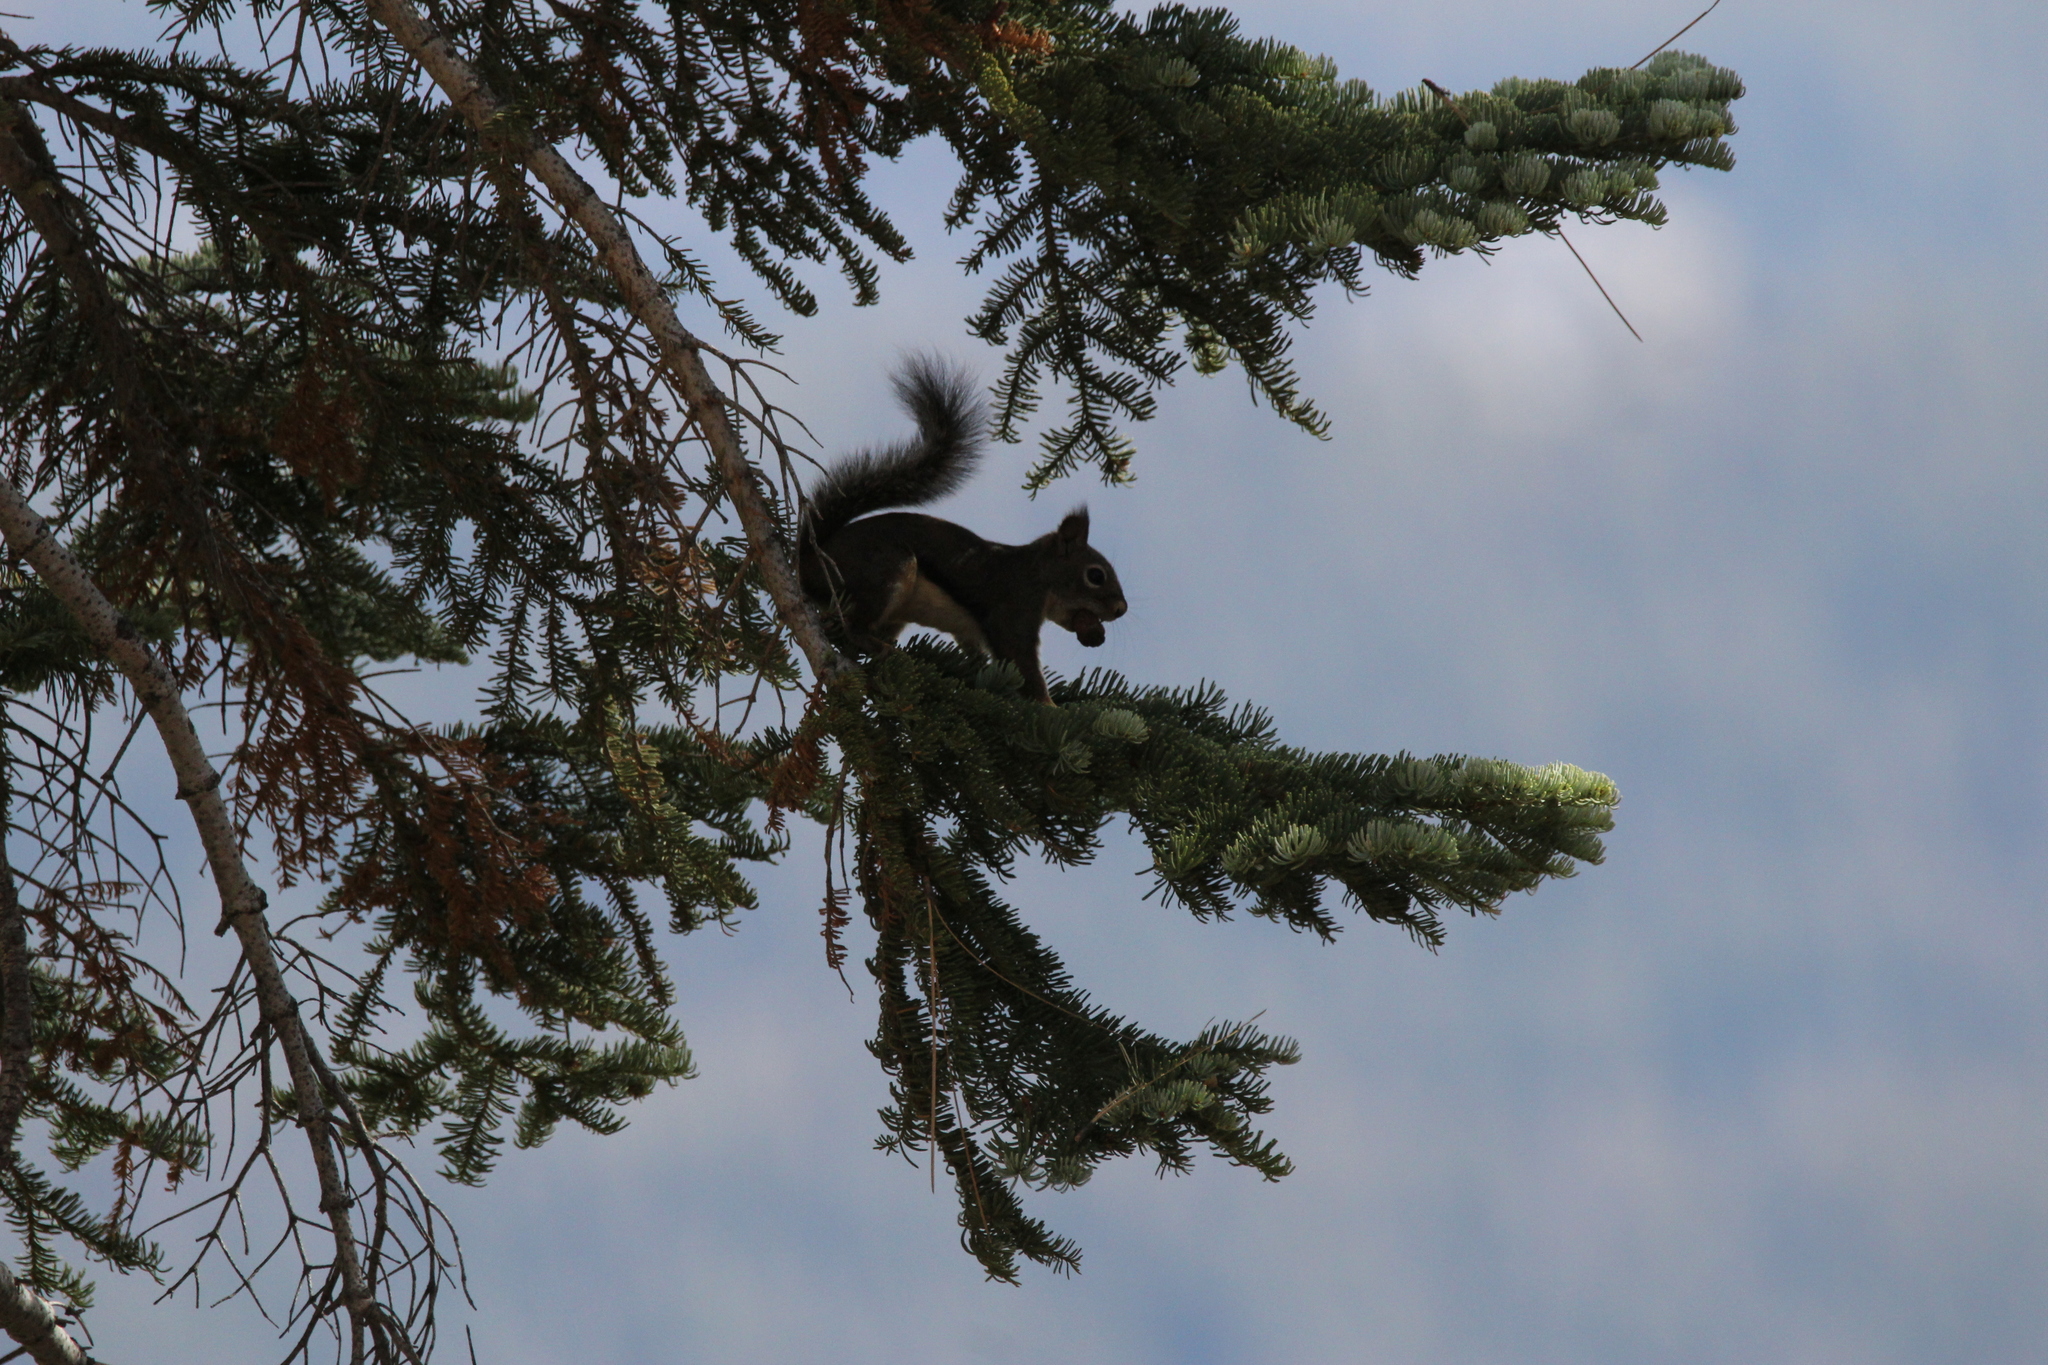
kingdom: Animalia
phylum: Chordata
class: Mammalia
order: Rodentia
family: Sciuridae
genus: Tamiasciurus
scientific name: Tamiasciurus douglasii
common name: Douglas's squirrel
